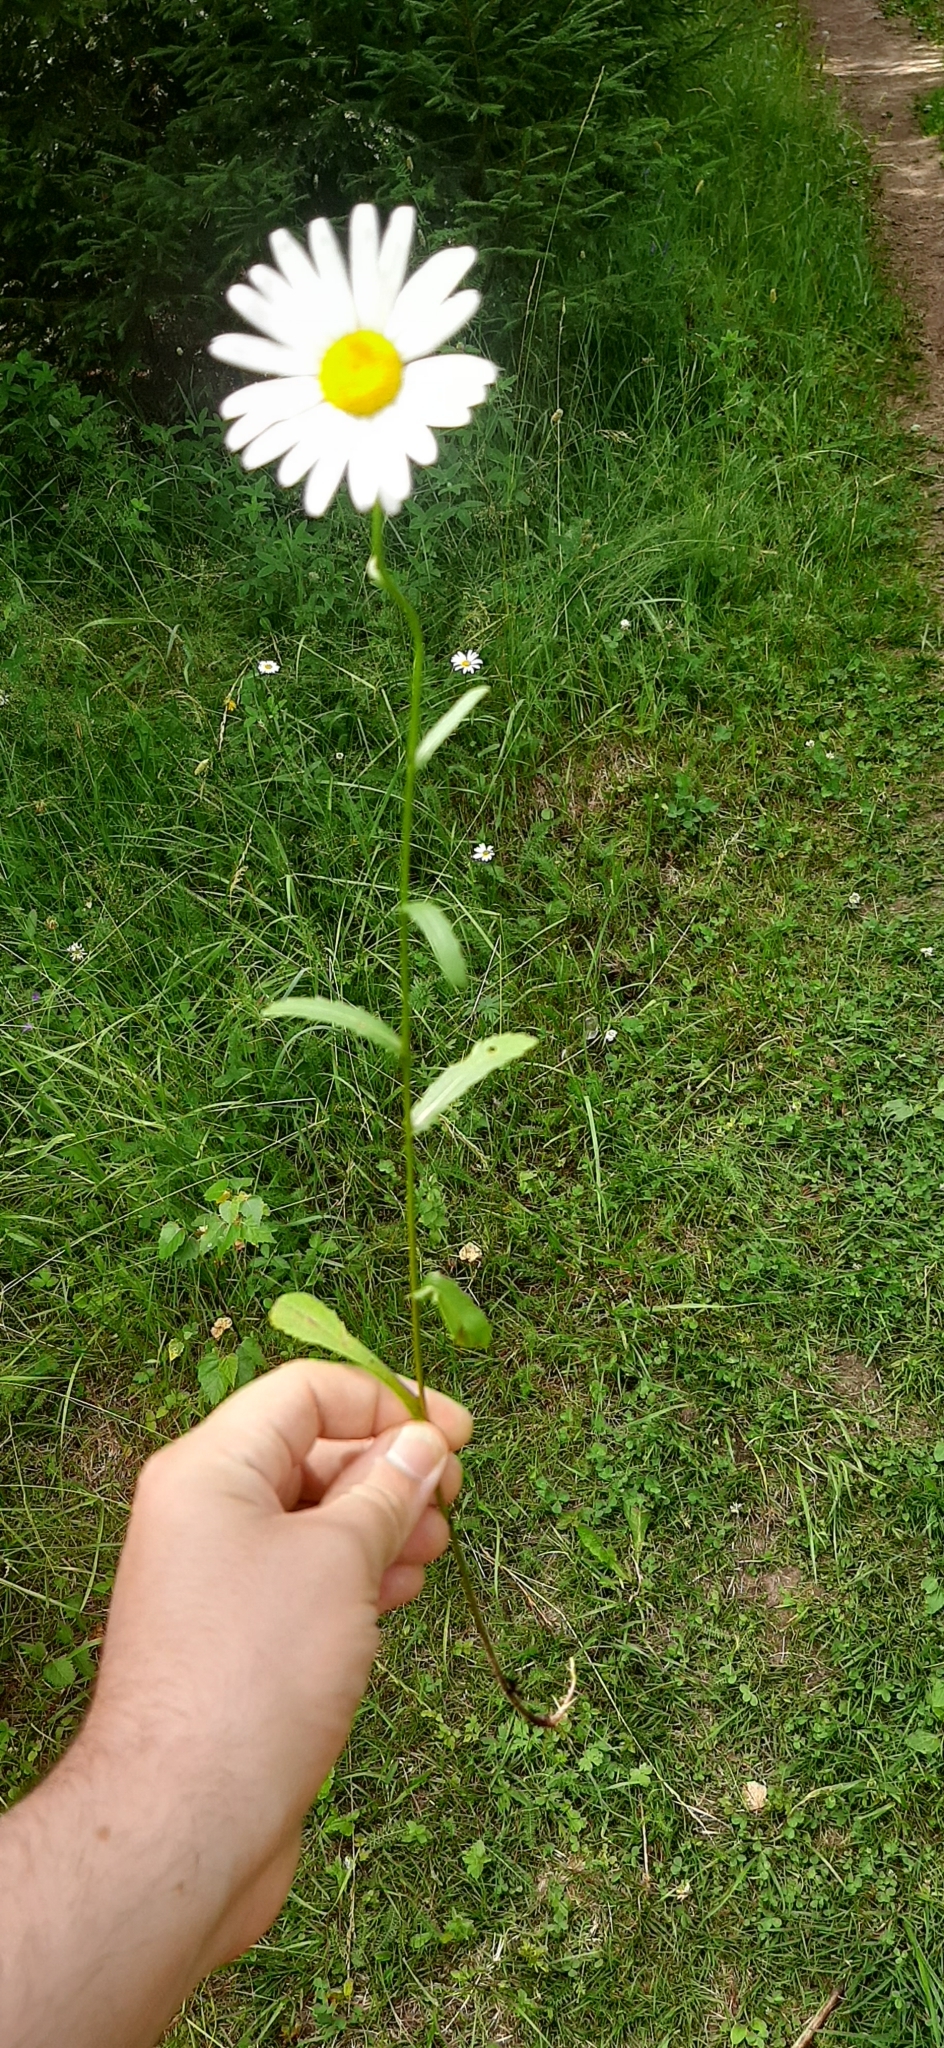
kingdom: Plantae
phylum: Tracheophyta
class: Magnoliopsida
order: Asterales
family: Asteraceae
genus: Leucanthemum
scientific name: Leucanthemum vulgare
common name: Oxeye daisy
